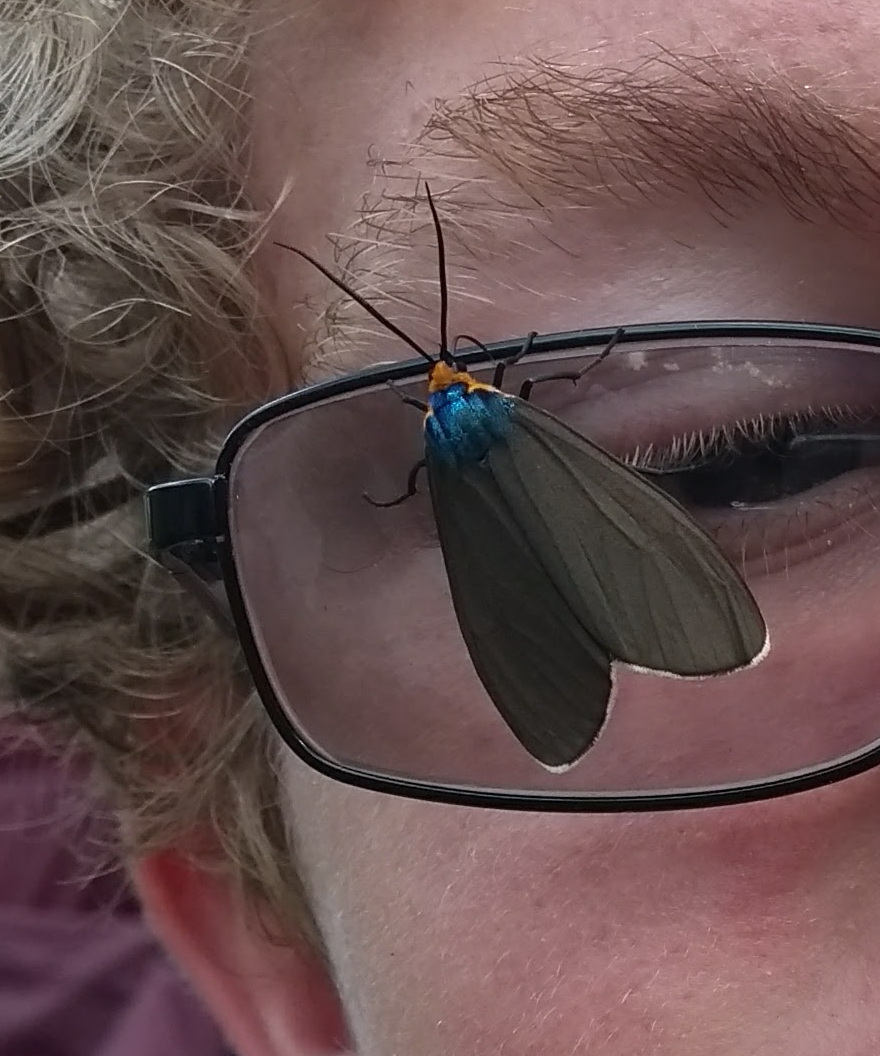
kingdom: Animalia
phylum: Arthropoda
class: Insecta
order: Lepidoptera
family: Erebidae
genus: Ctenucha
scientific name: Ctenucha virginica
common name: Virginia ctenucha moth
